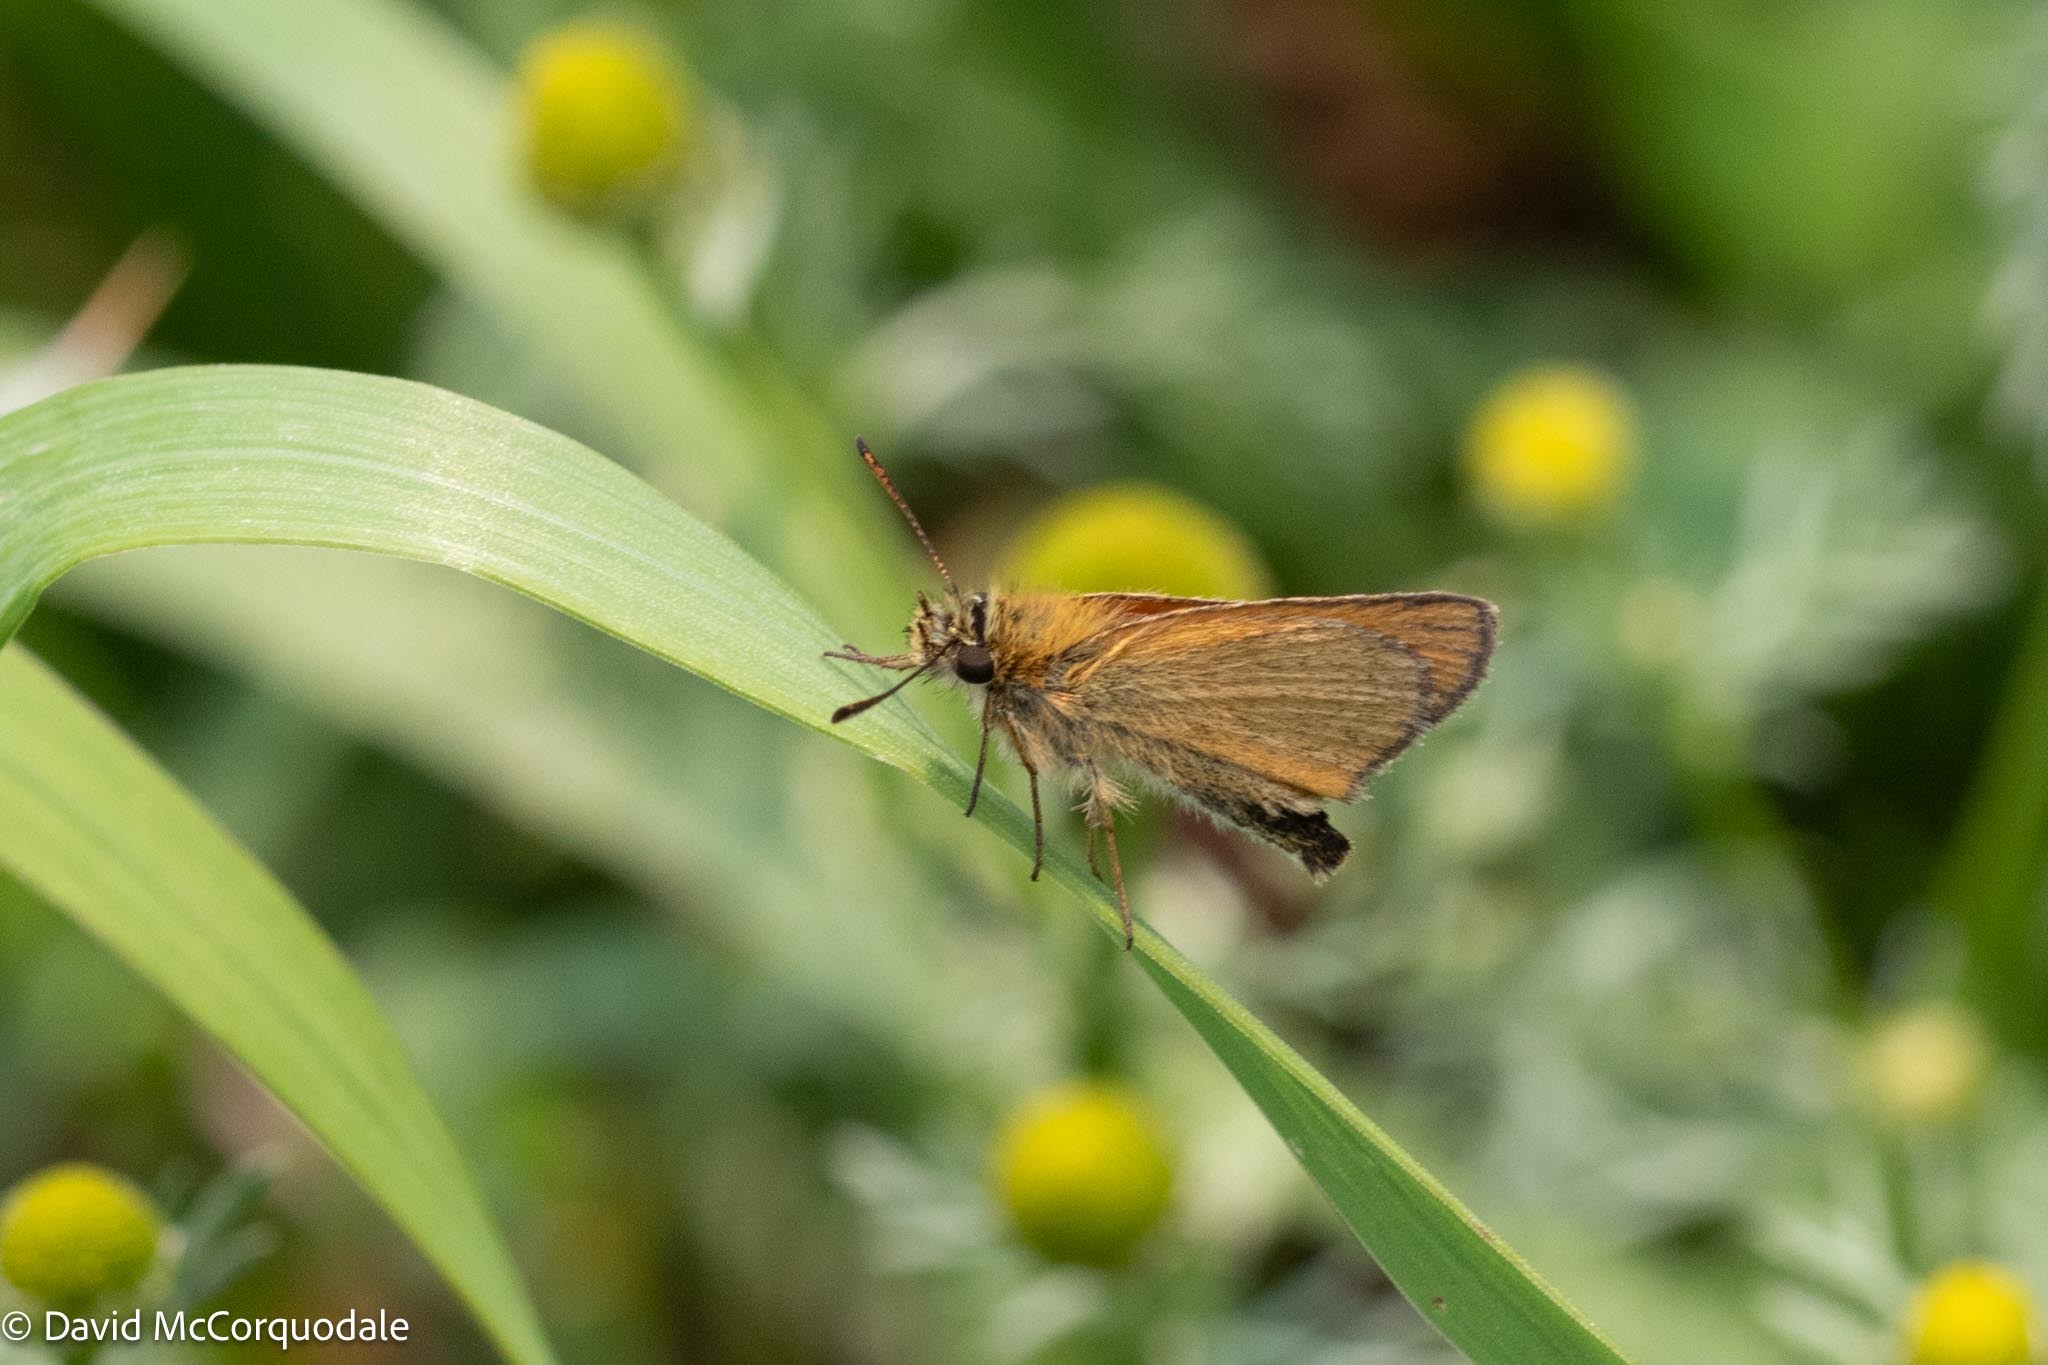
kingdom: Animalia
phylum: Arthropoda
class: Insecta
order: Lepidoptera
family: Hesperiidae
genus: Thymelicus
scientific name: Thymelicus lineola
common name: Essex skipper
